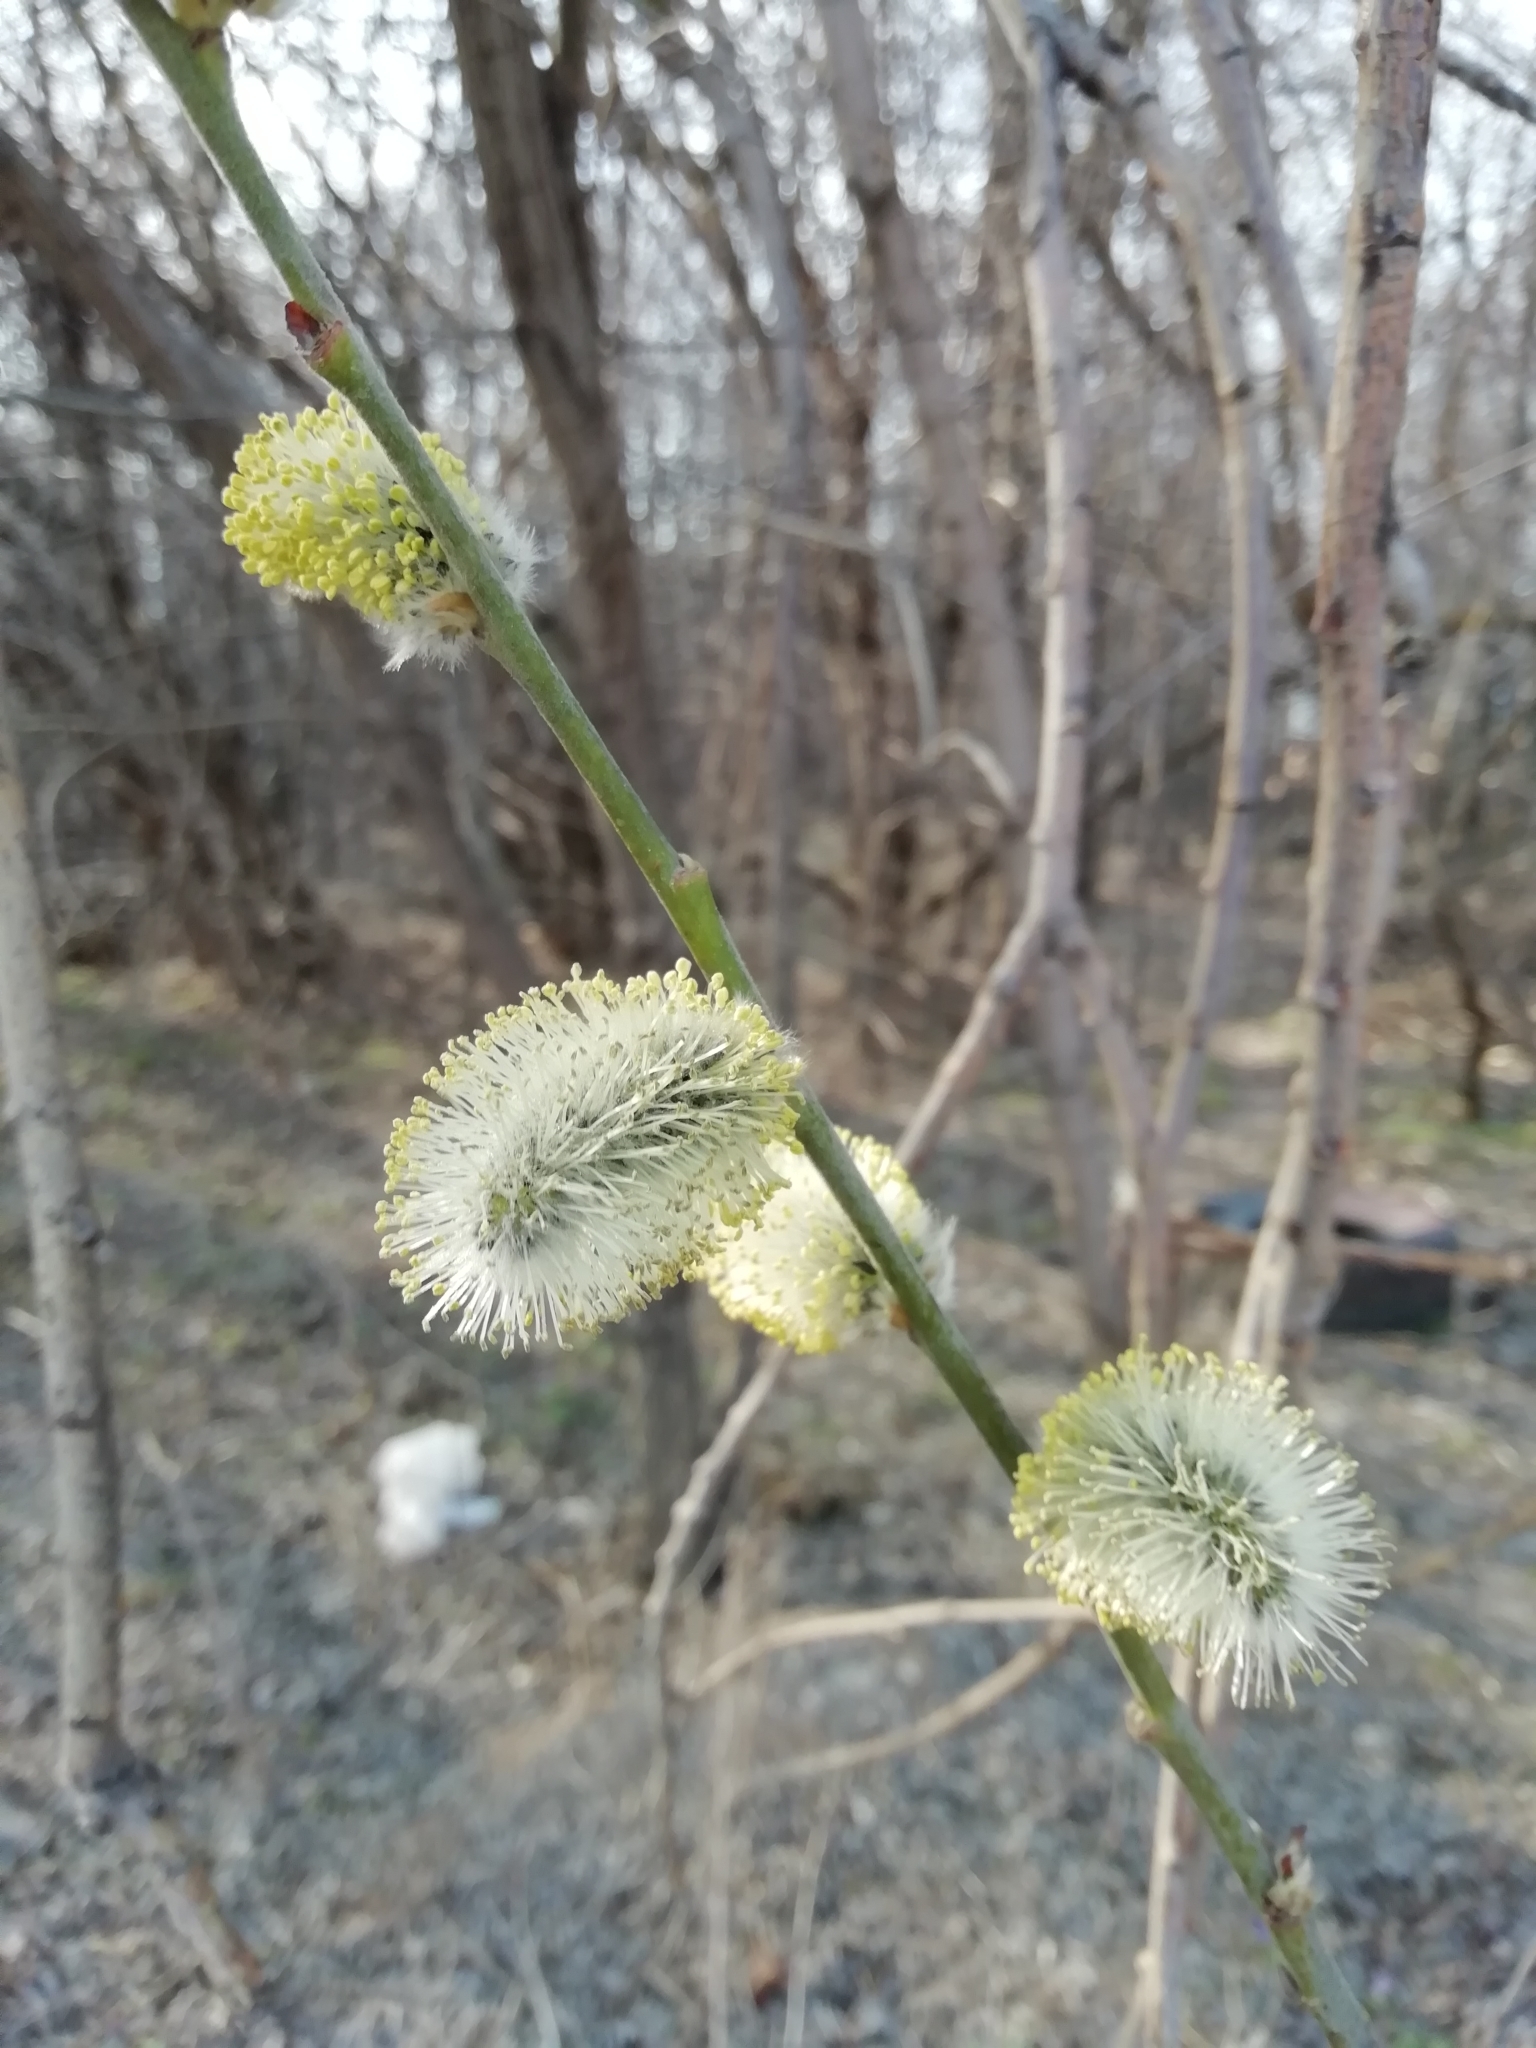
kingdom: Plantae
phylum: Tracheophyta
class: Magnoliopsida
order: Malpighiales
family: Salicaceae
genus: Salix
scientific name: Salix caprea
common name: Goat willow
